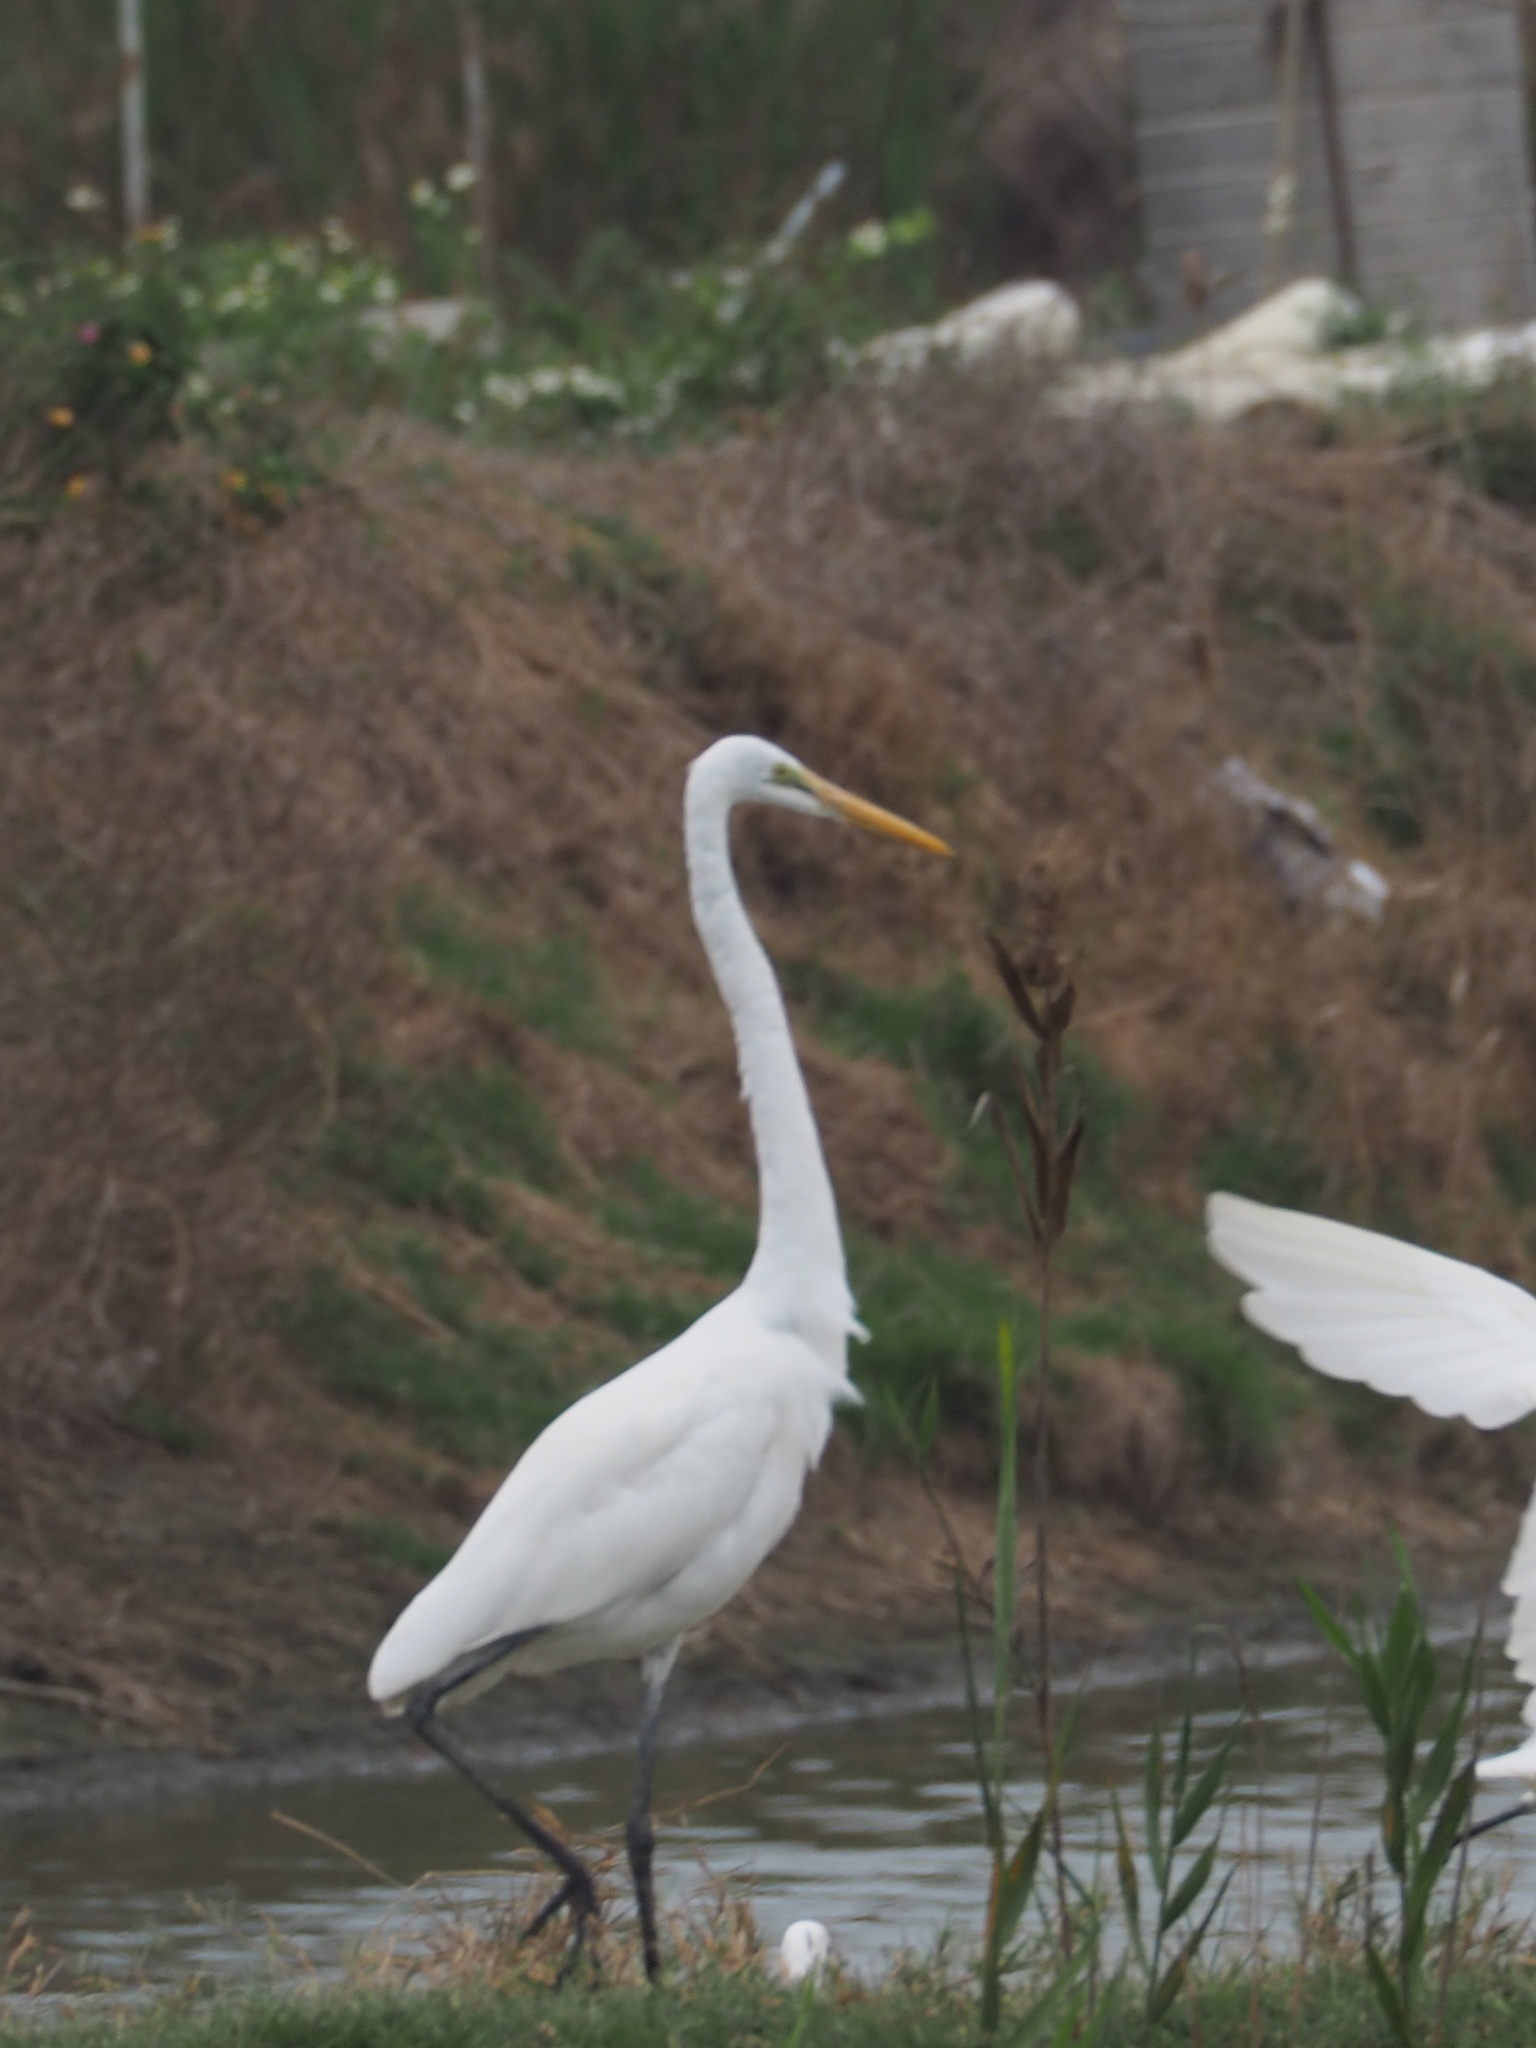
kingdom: Animalia
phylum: Chordata
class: Aves
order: Pelecaniformes
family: Ardeidae
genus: Ardea
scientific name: Ardea alba
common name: Great egret
